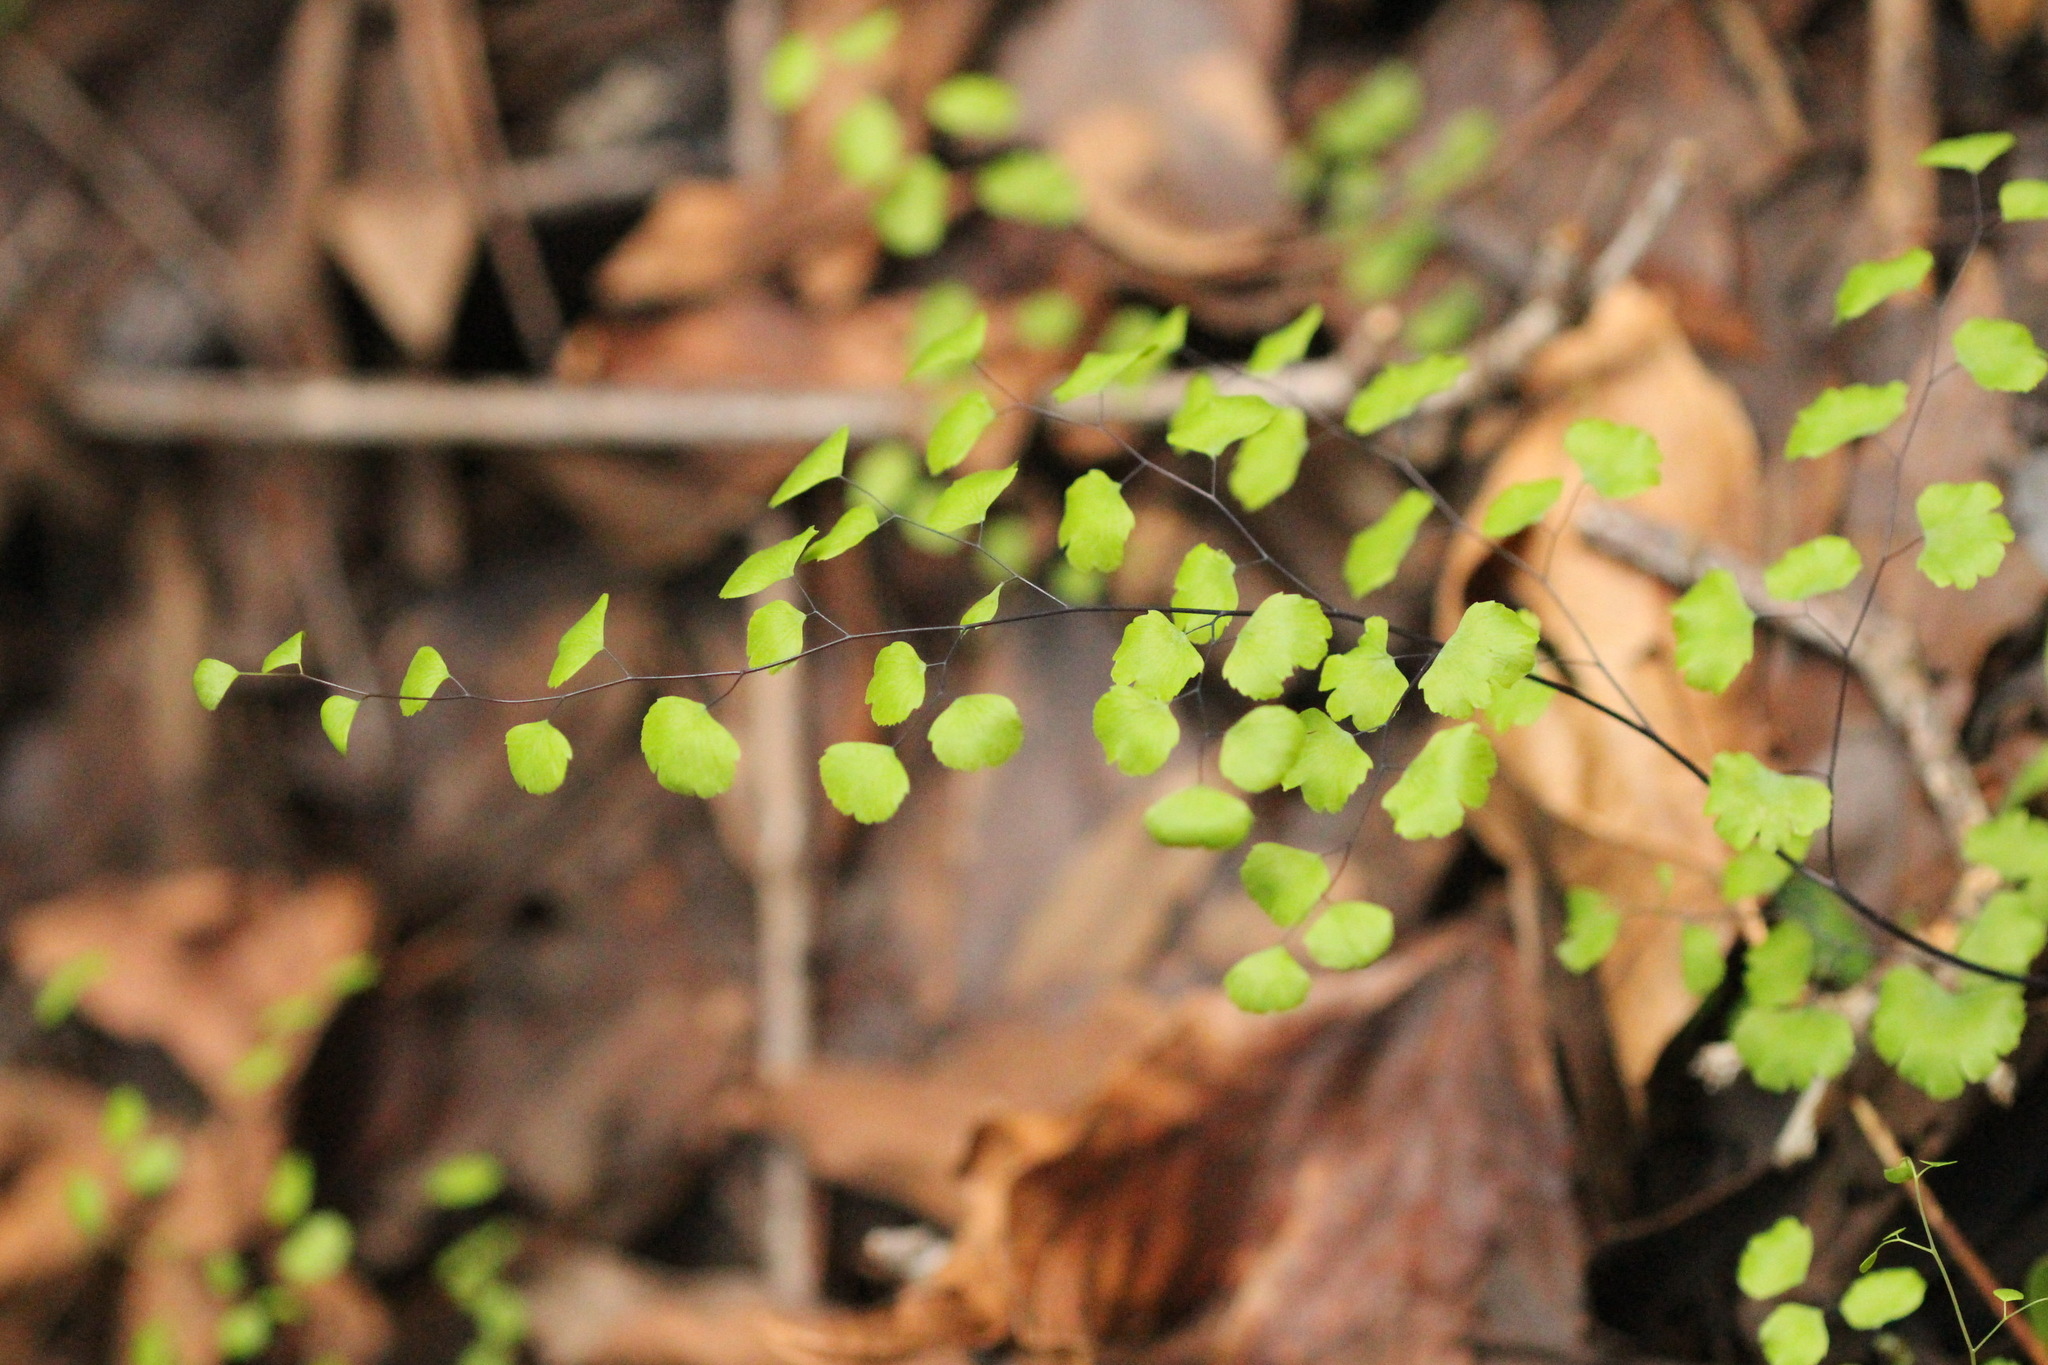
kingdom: Plantae
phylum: Tracheophyta
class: Polypodiopsida
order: Polypodiales
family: Pteridaceae
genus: Adiantum
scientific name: Adiantum jordanii
